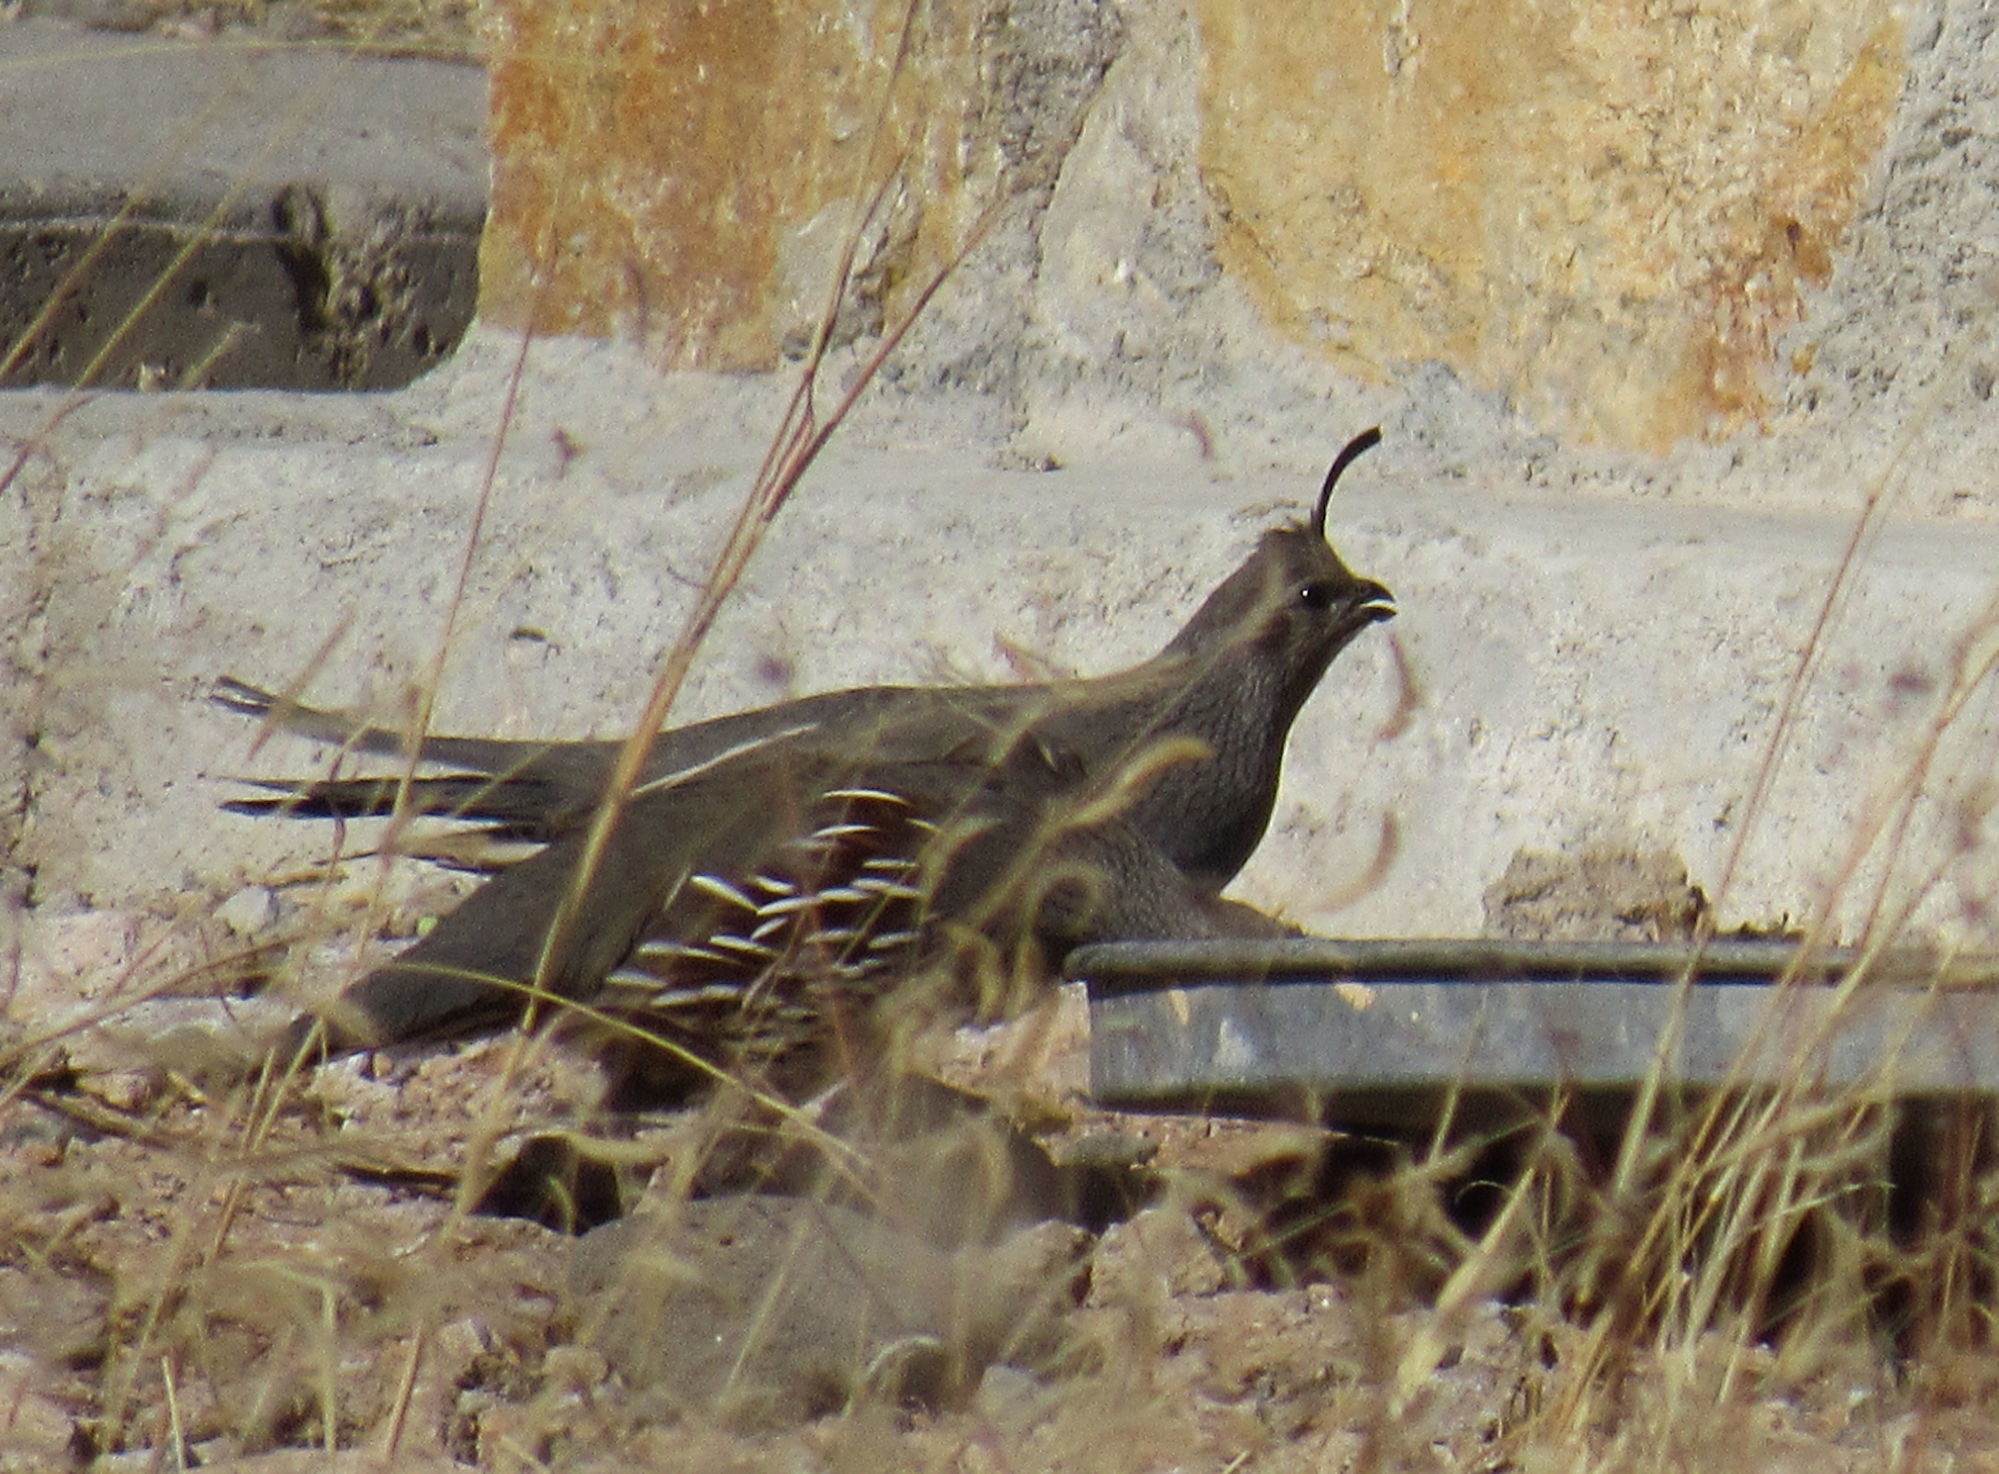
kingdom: Animalia
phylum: Chordata
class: Aves
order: Galliformes
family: Odontophoridae
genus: Callipepla
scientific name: Callipepla gambelii
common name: Gambel's quail
